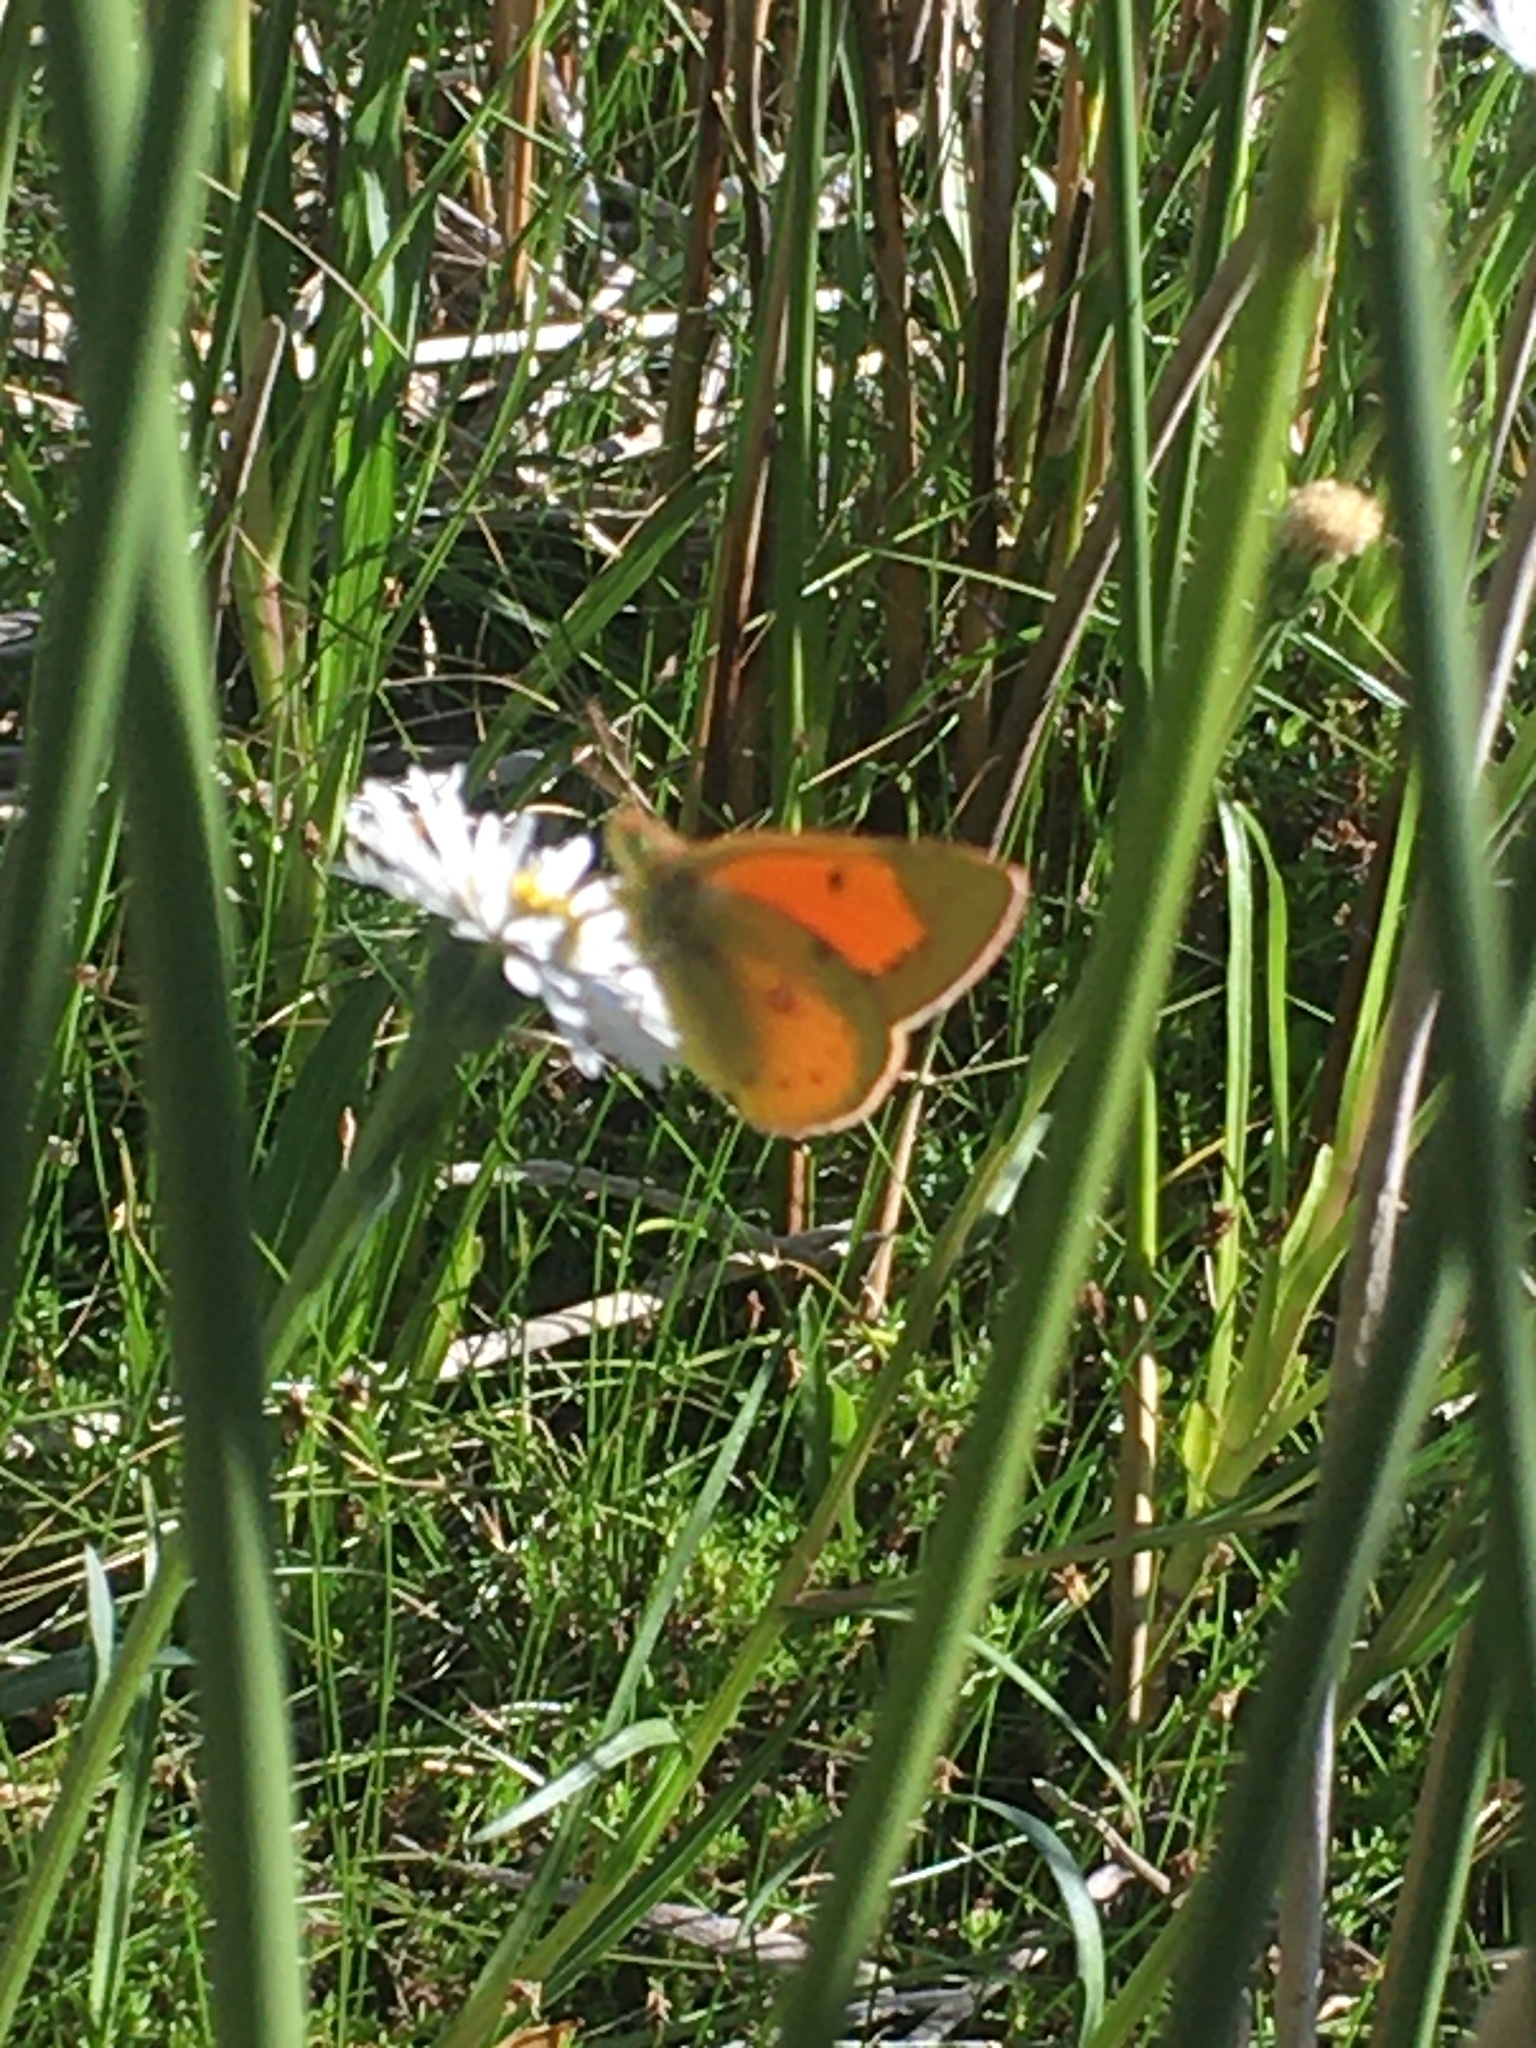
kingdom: Animalia
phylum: Arthropoda
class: Insecta
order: Lepidoptera
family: Pieridae
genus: Colias
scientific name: Colias vauthierii
